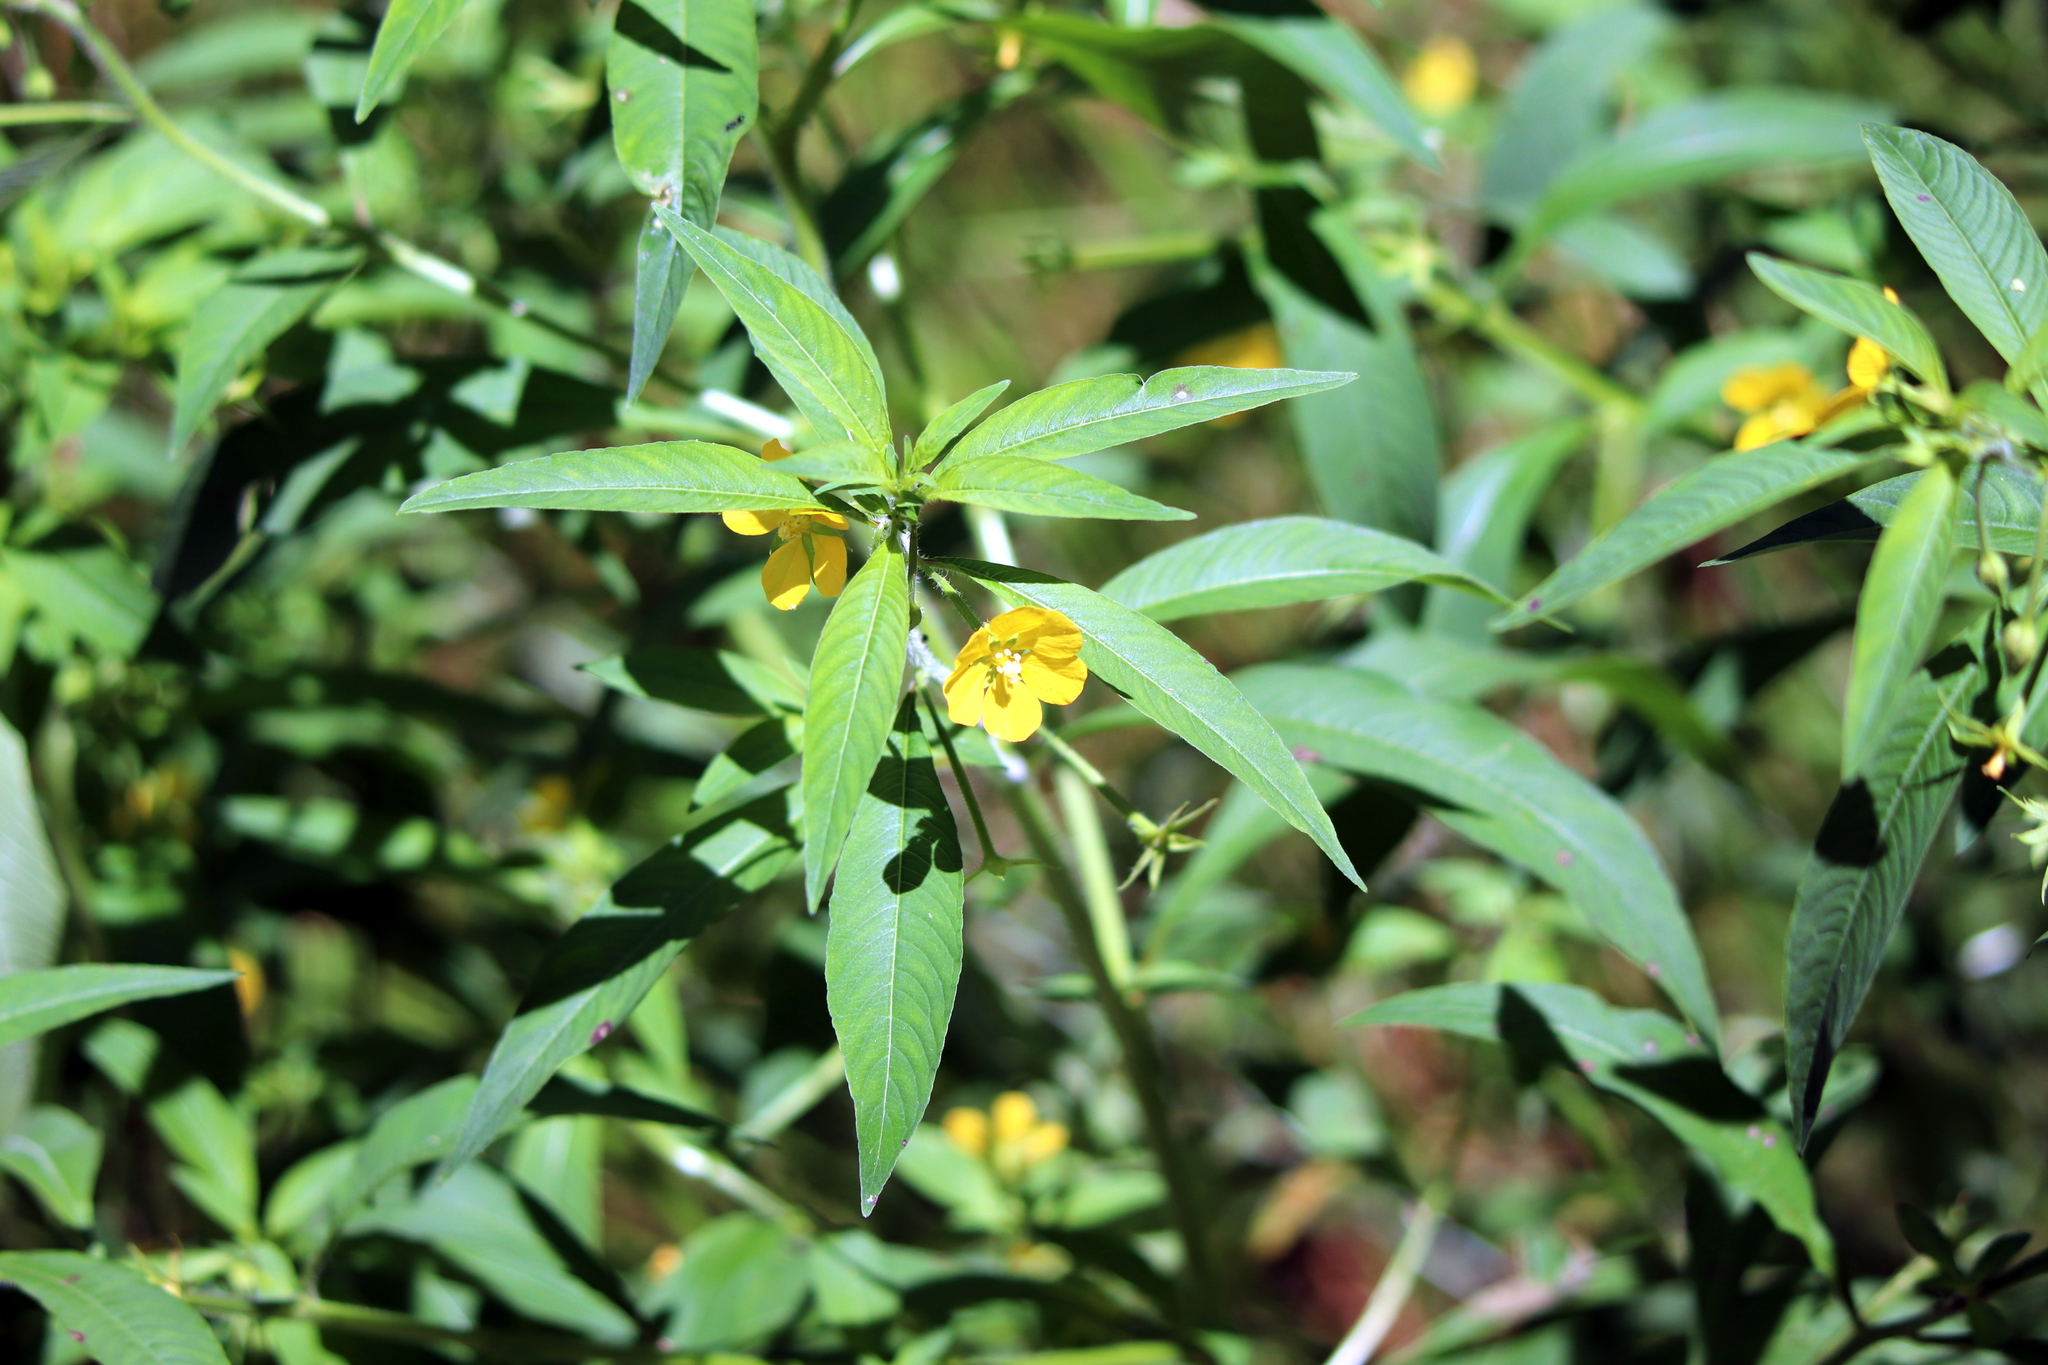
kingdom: Plantae
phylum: Tracheophyta
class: Magnoliopsida
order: Myrtales
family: Onagraceae
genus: Ludwigia
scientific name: Ludwigia leptocarpa
